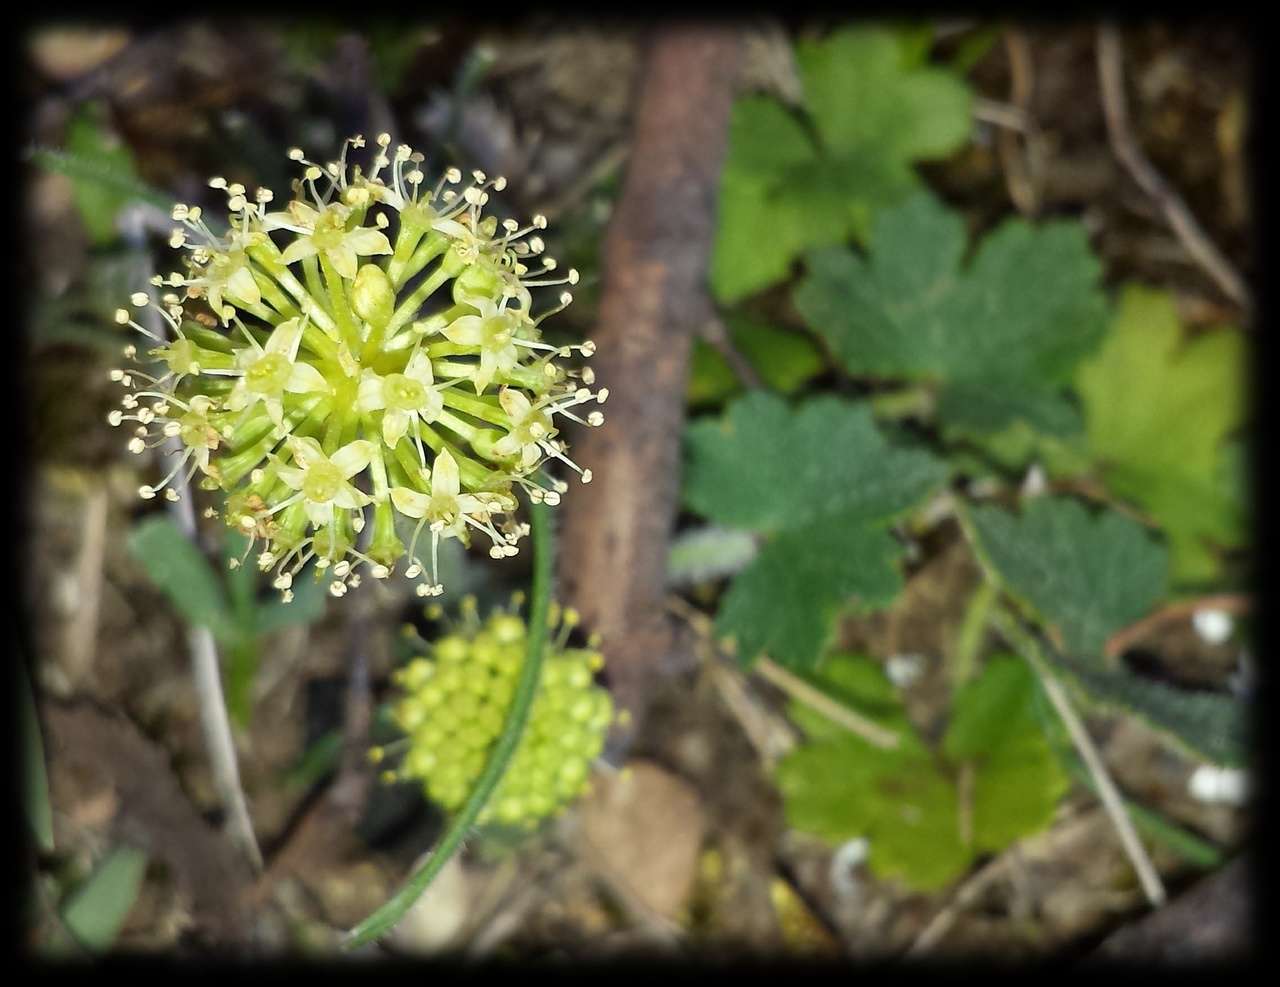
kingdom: Plantae
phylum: Tracheophyta
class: Magnoliopsida
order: Apiales
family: Araliaceae
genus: Hydrocotyle
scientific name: Hydrocotyle laxiflora
